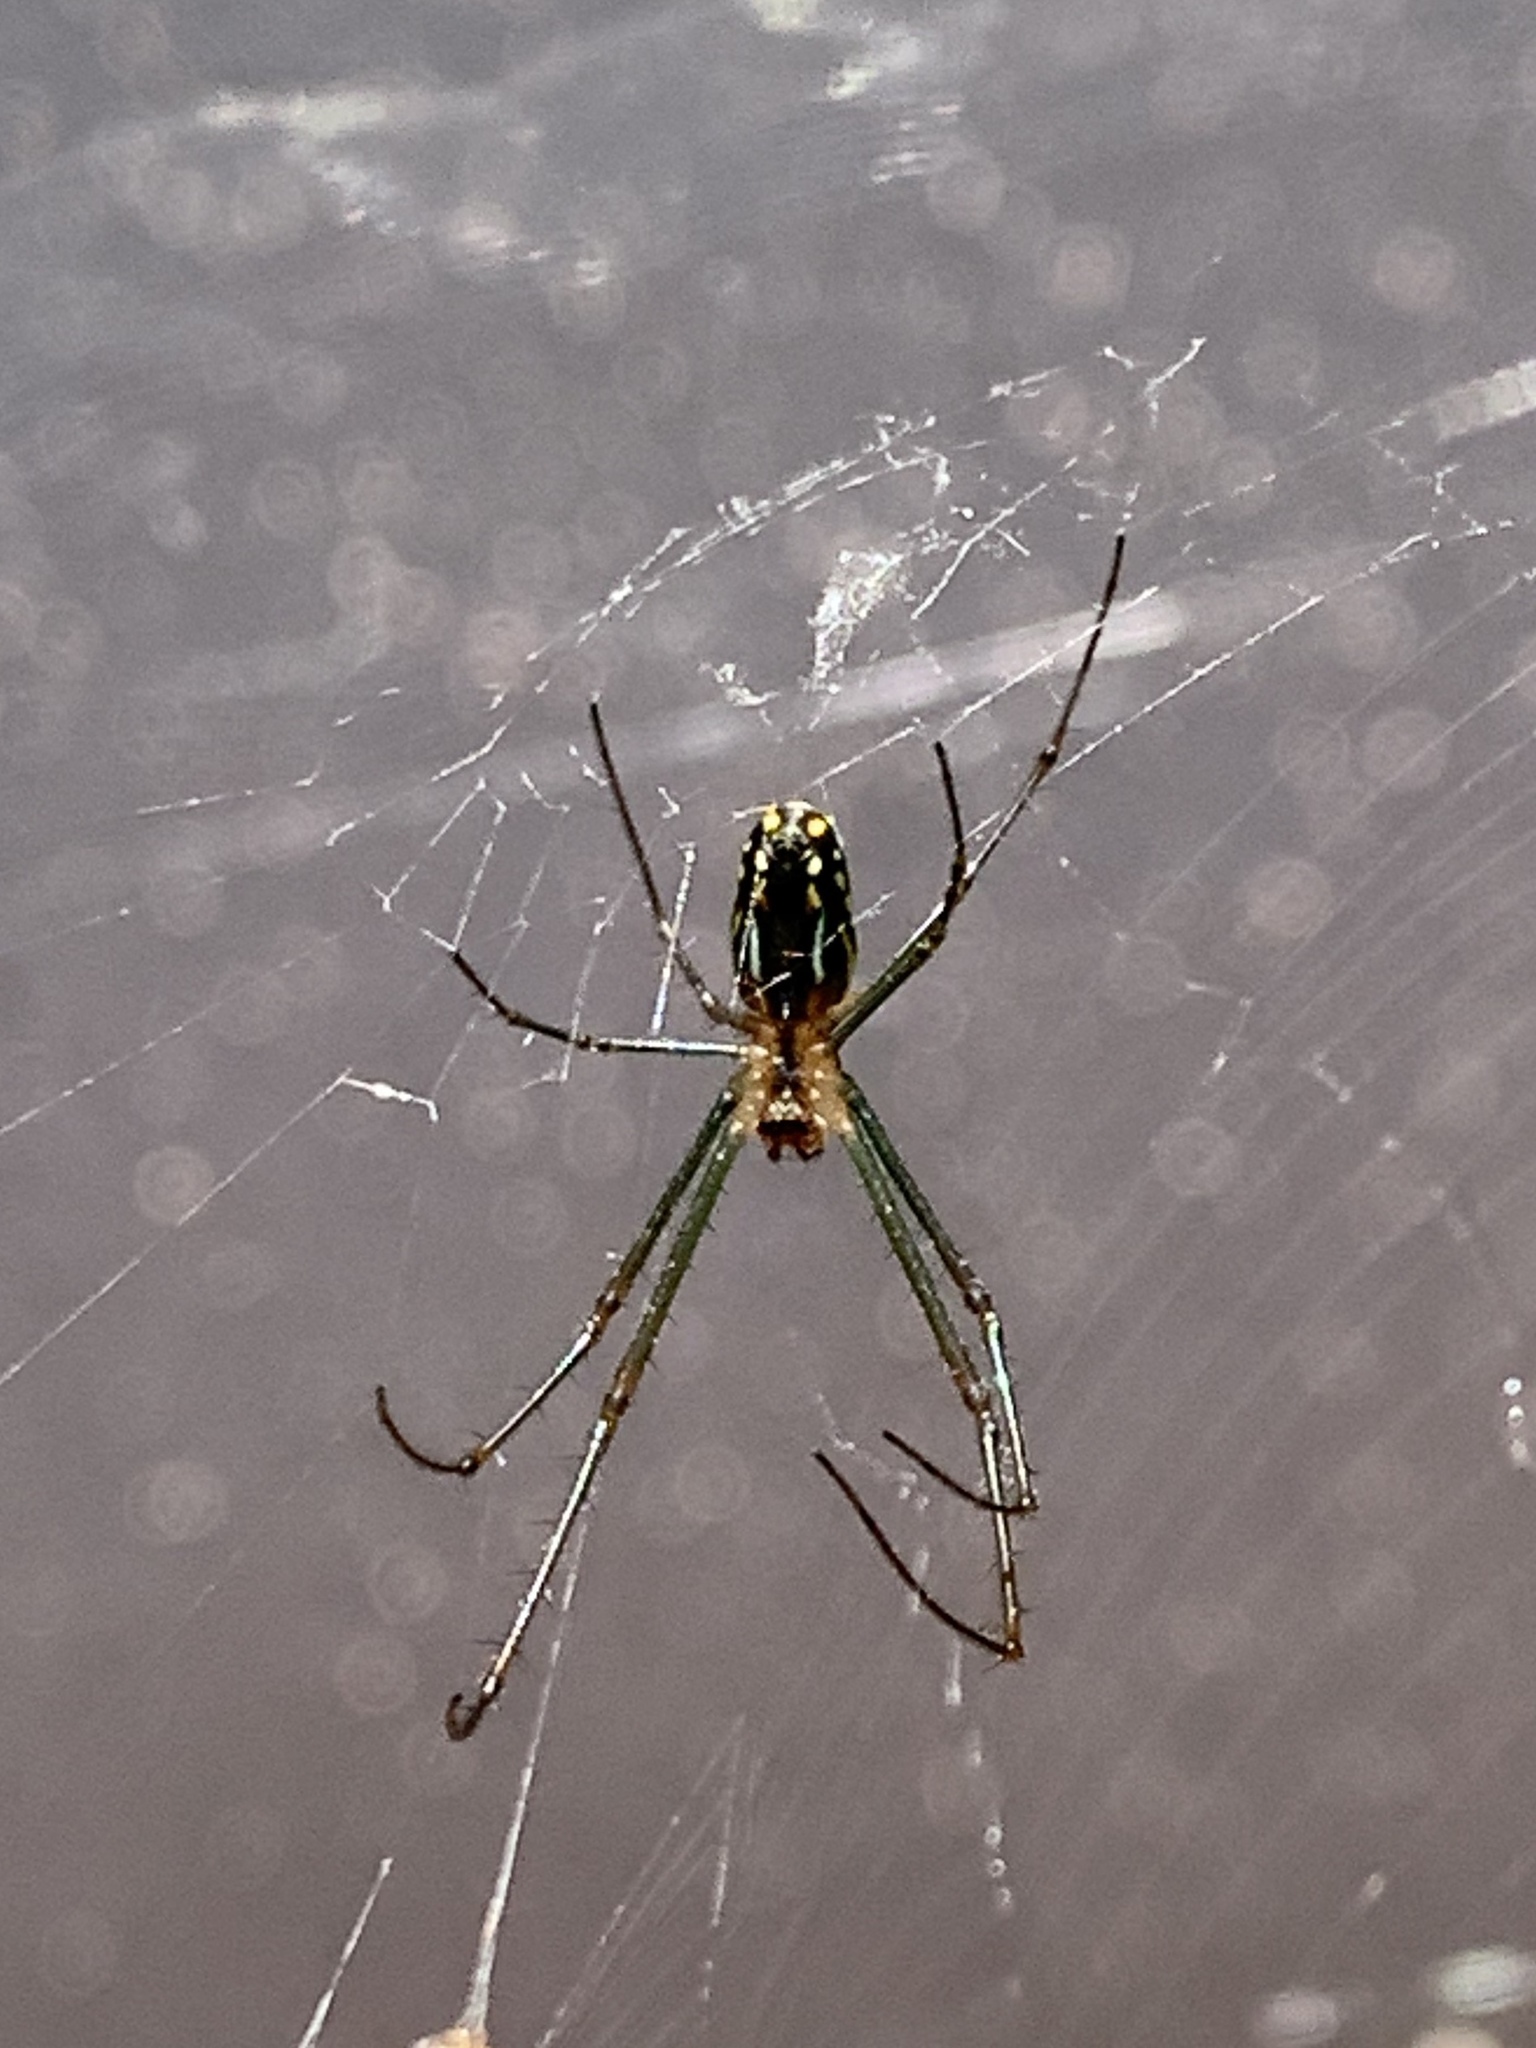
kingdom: Animalia
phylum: Arthropoda
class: Arachnida
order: Araneae
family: Tetragnathidae
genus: Leucauge
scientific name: Leucauge argyra
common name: Longjawed orb weavers
